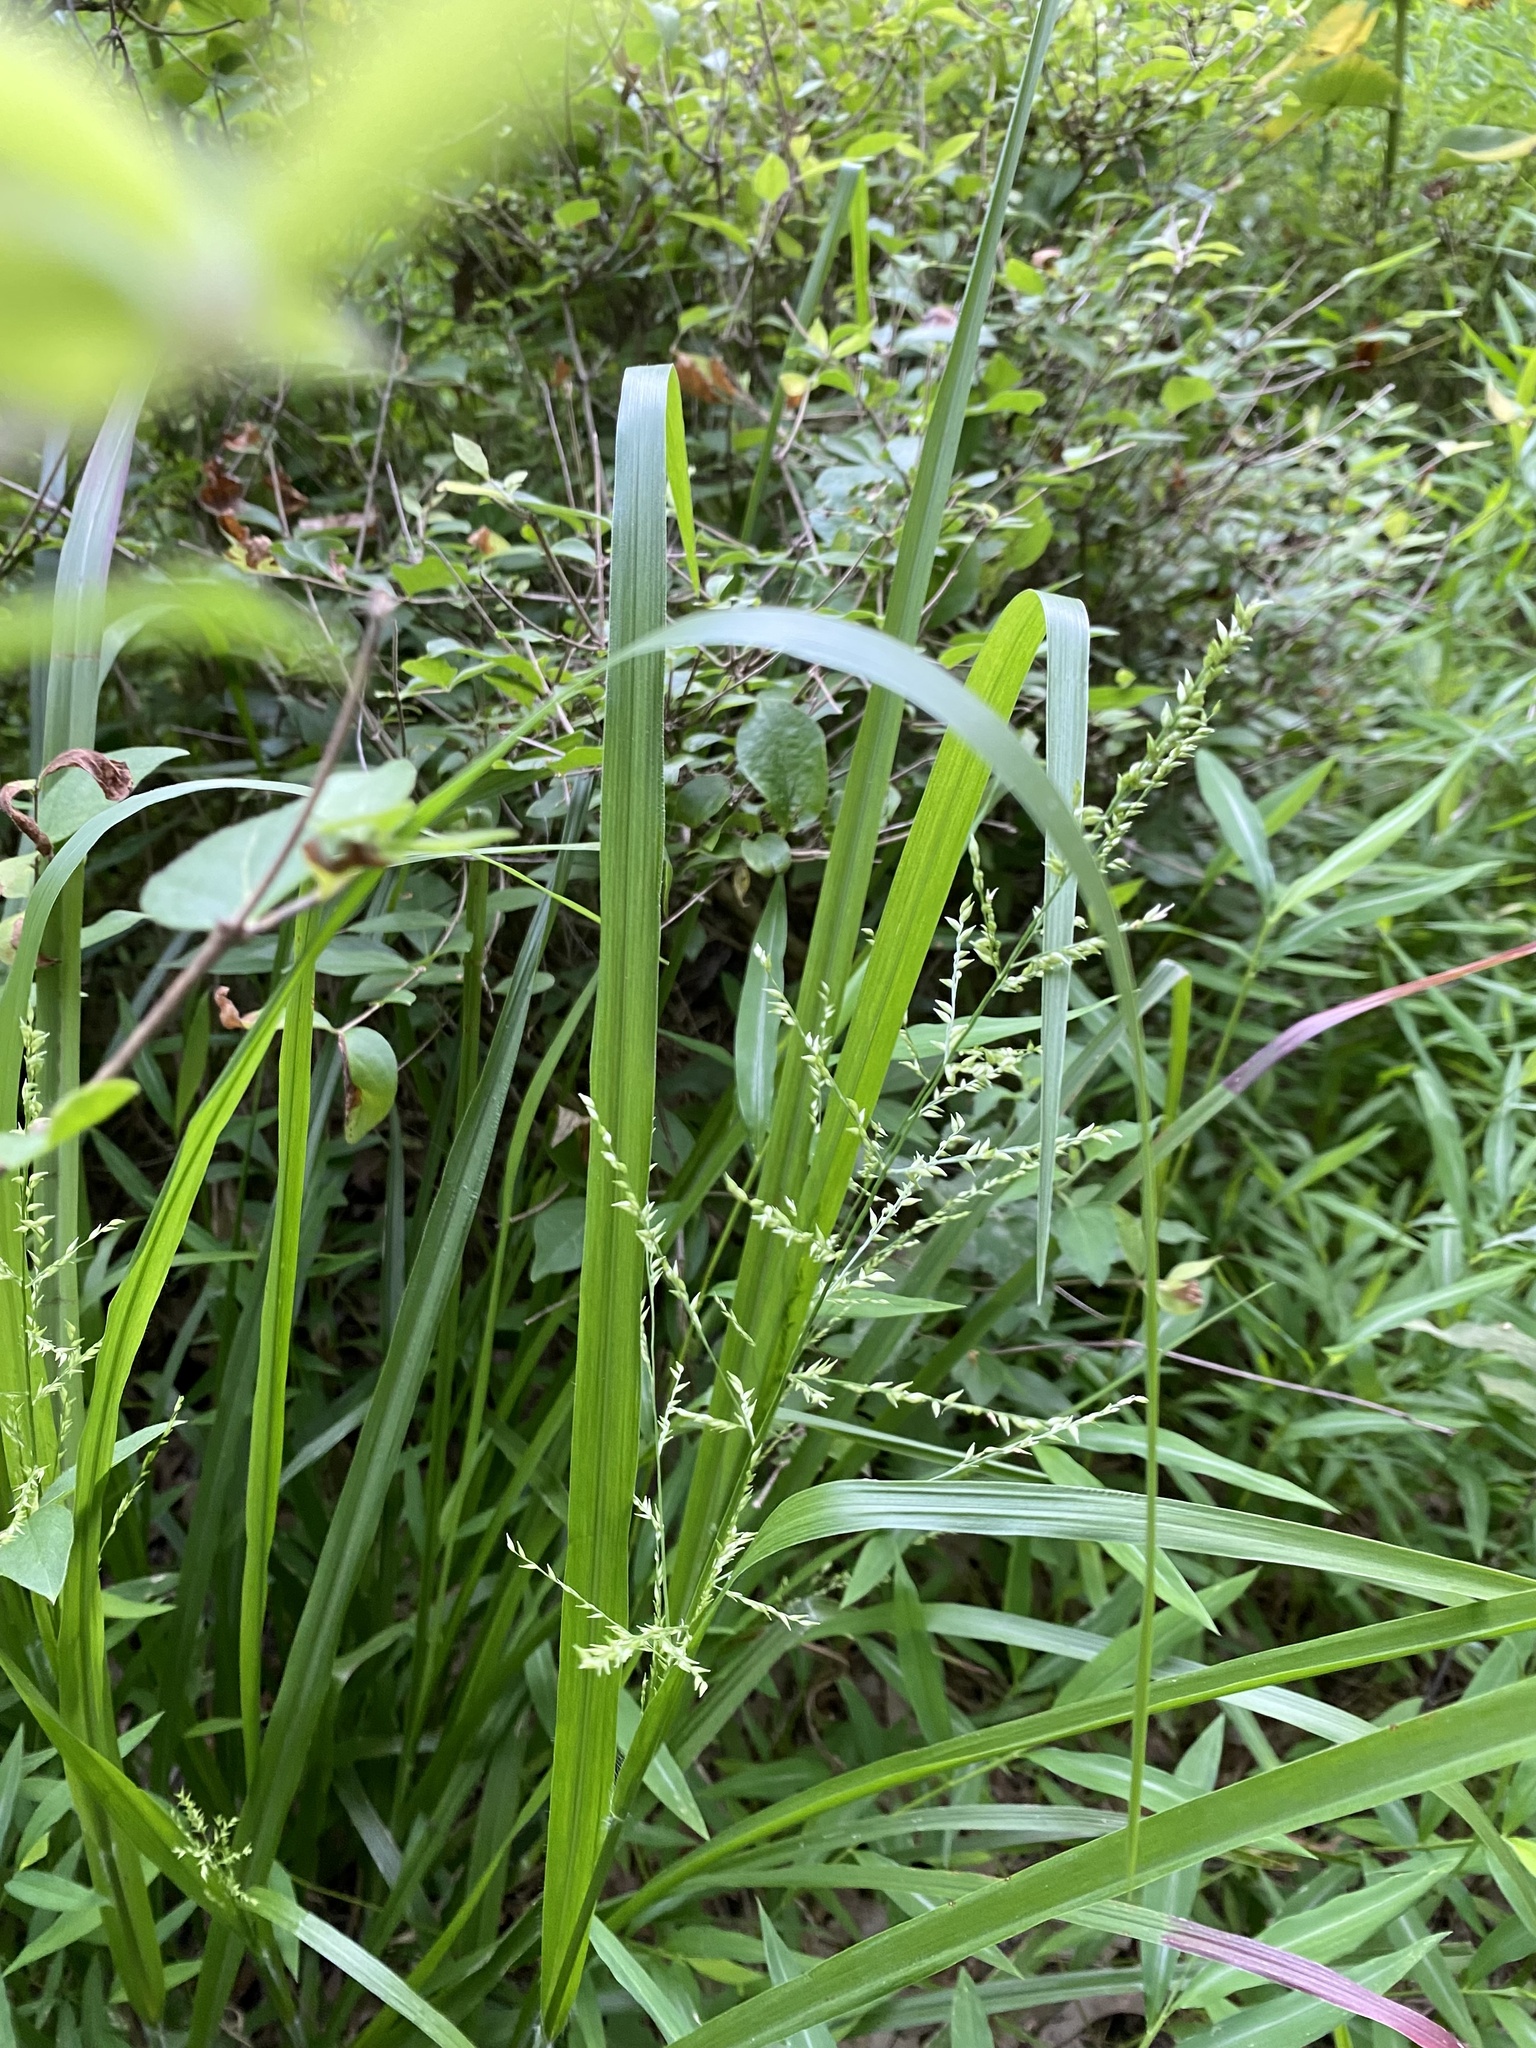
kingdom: Plantae
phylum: Tracheophyta
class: Liliopsida
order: Poales
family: Poaceae
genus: Coleataenia
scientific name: Coleataenia anceps
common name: Beaked panic grass
